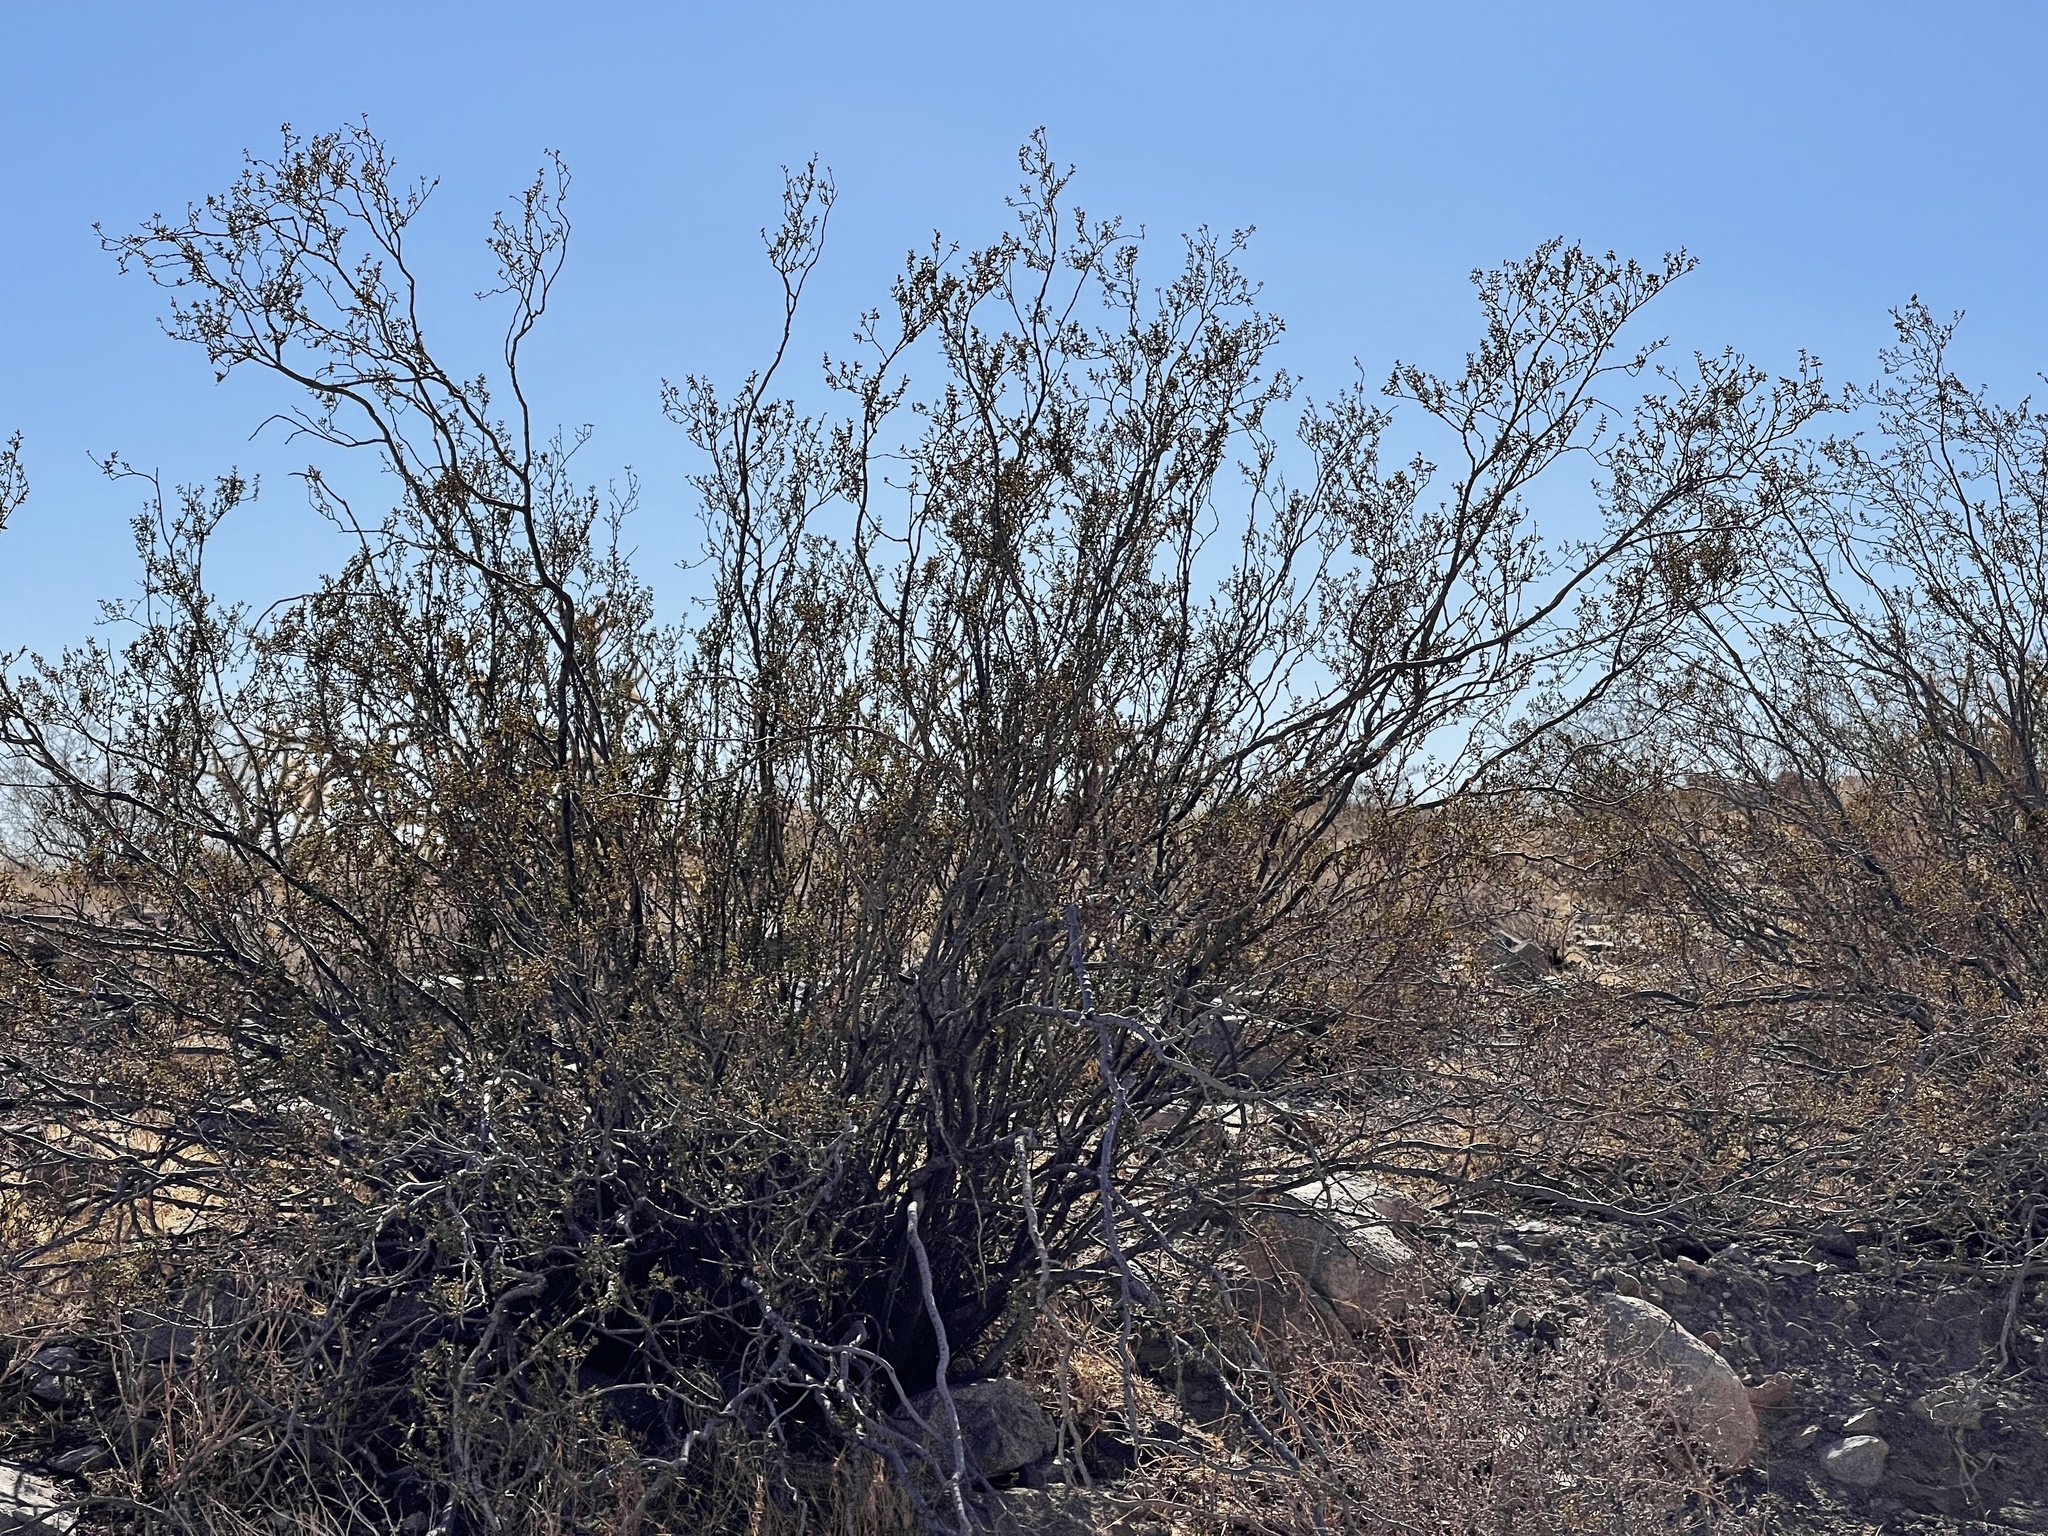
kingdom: Plantae
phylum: Tracheophyta
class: Magnoliopsida
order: Zygophyllales
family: Zygophyllaceae
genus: Larrea
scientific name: Larrea tridentata
